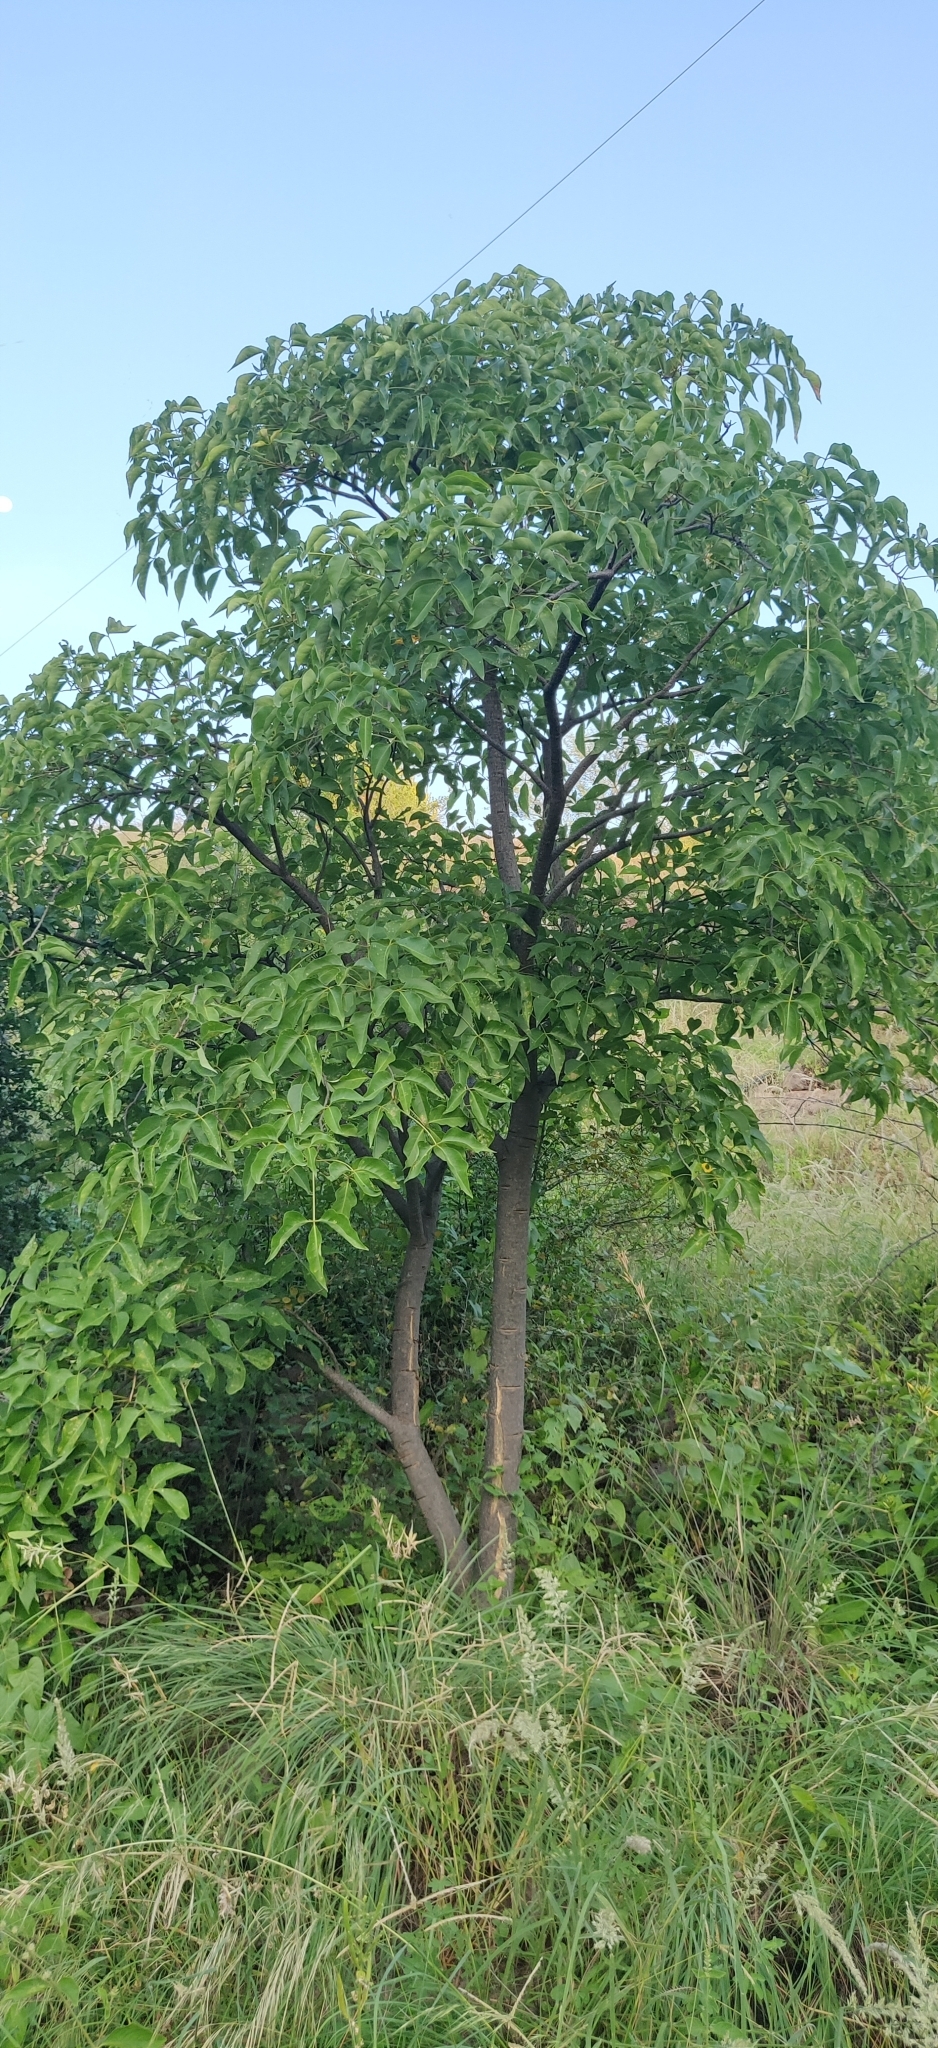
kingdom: Plantae
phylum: Tracheophyta
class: Magnoliopsida
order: Brassicales
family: Capparaceae
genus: Crateva
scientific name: Crateva adansonii
